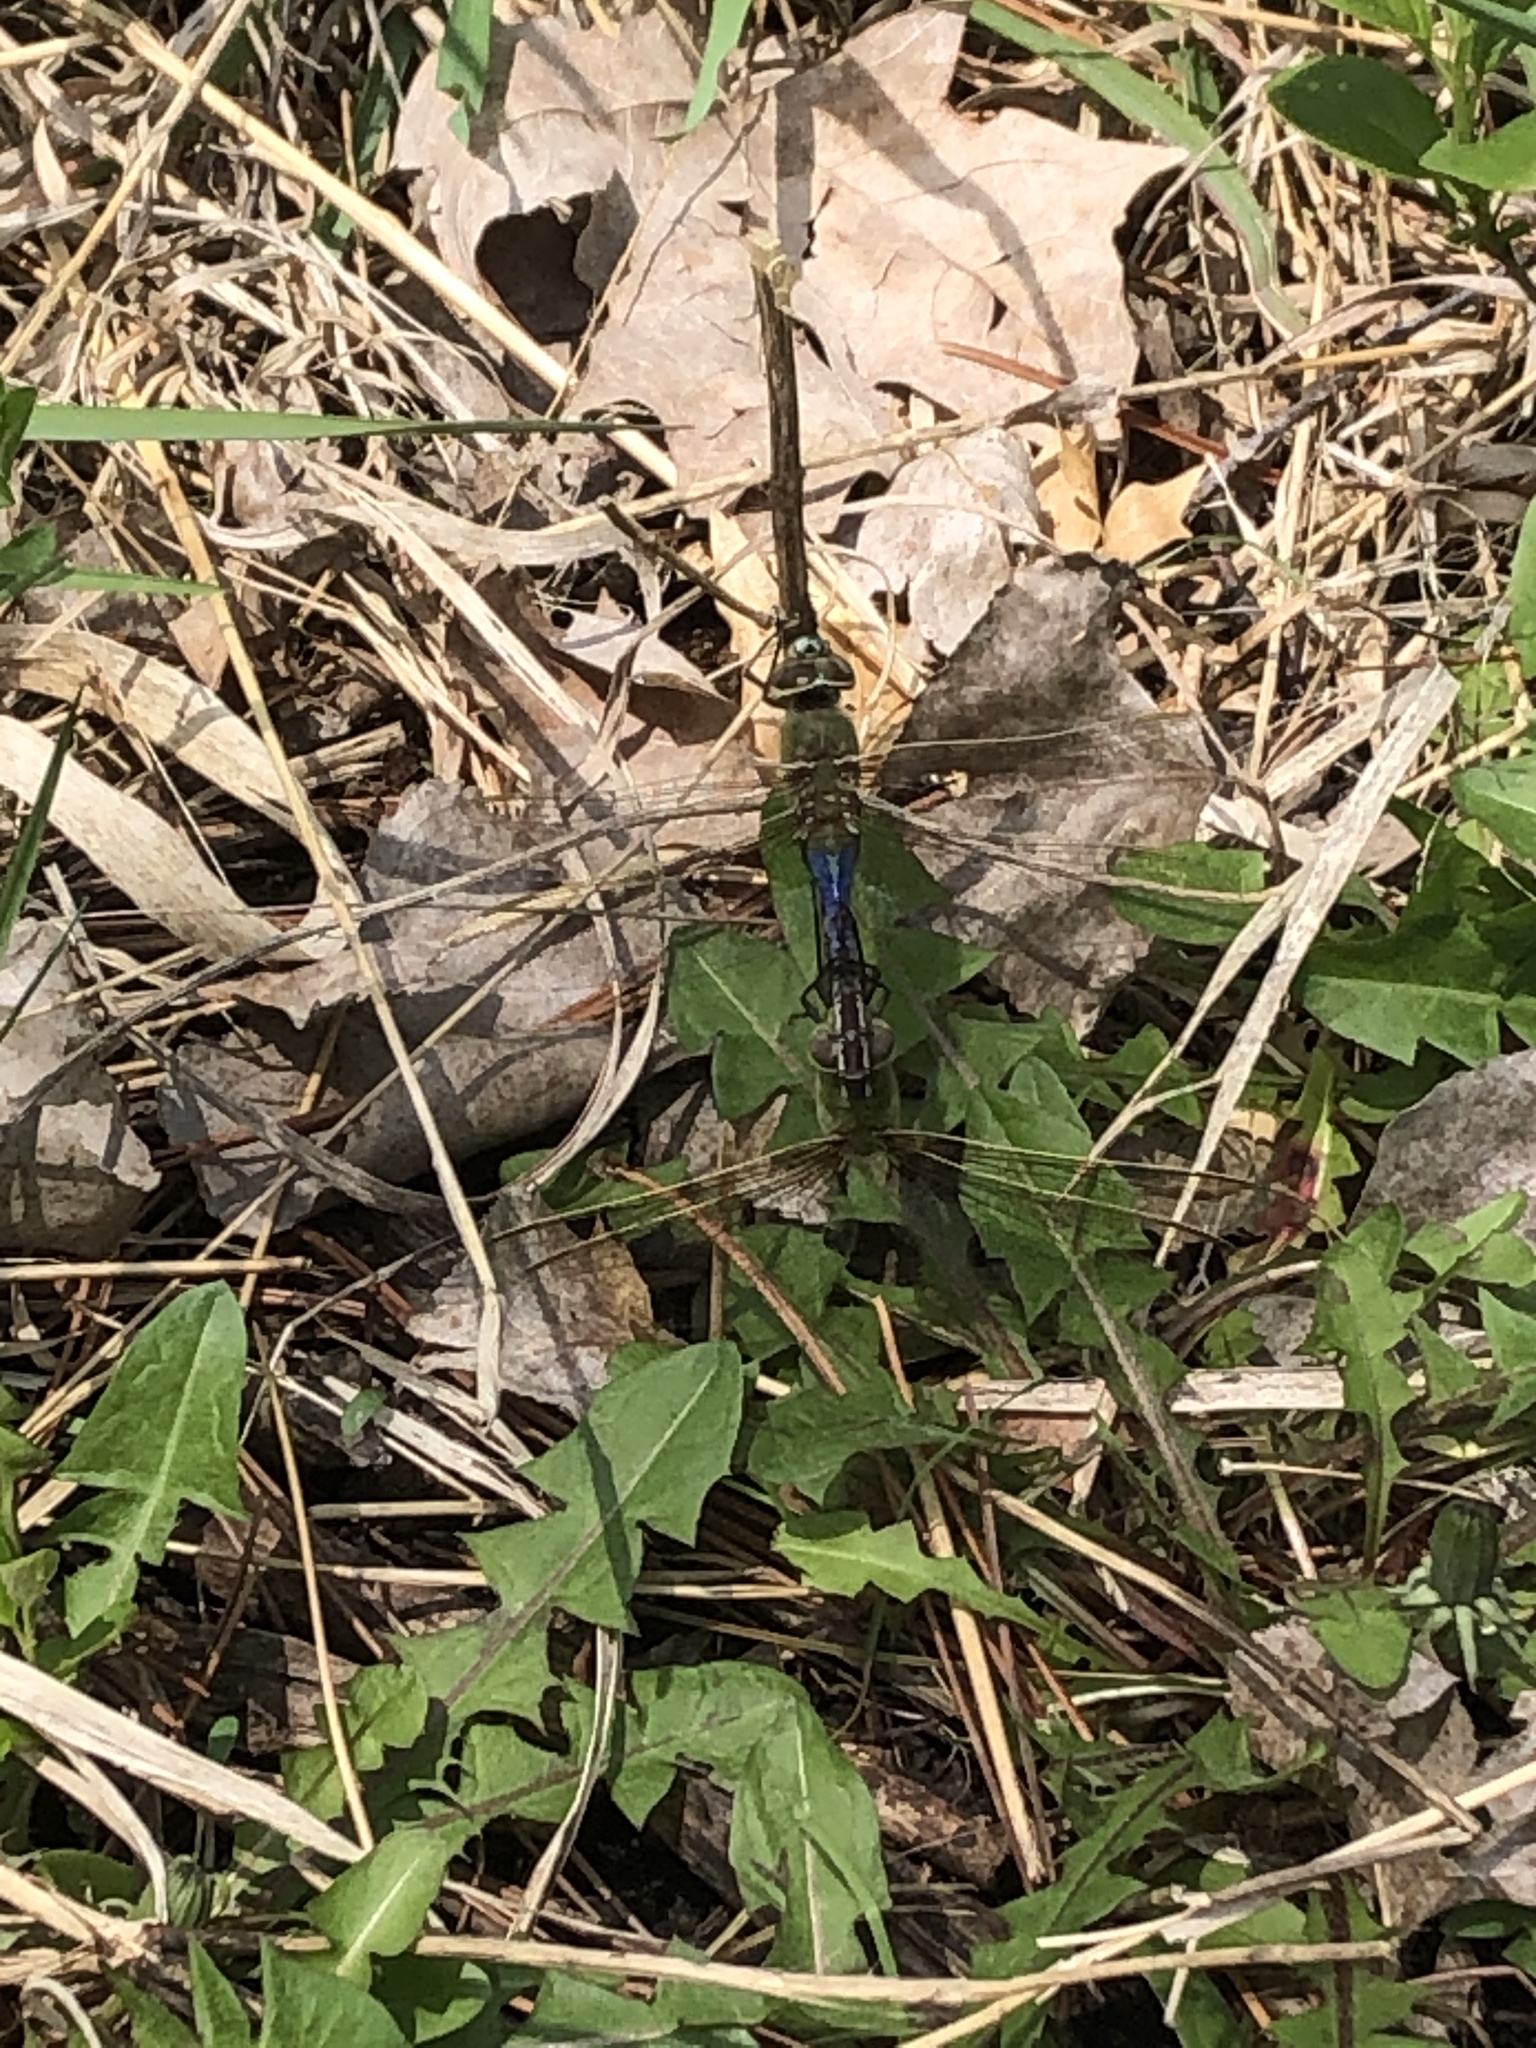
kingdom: Animalia
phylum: Arthropoda
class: Insecta
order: Odonata
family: Aeshnidae
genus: Anax
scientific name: Anax junius
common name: Common green darner
